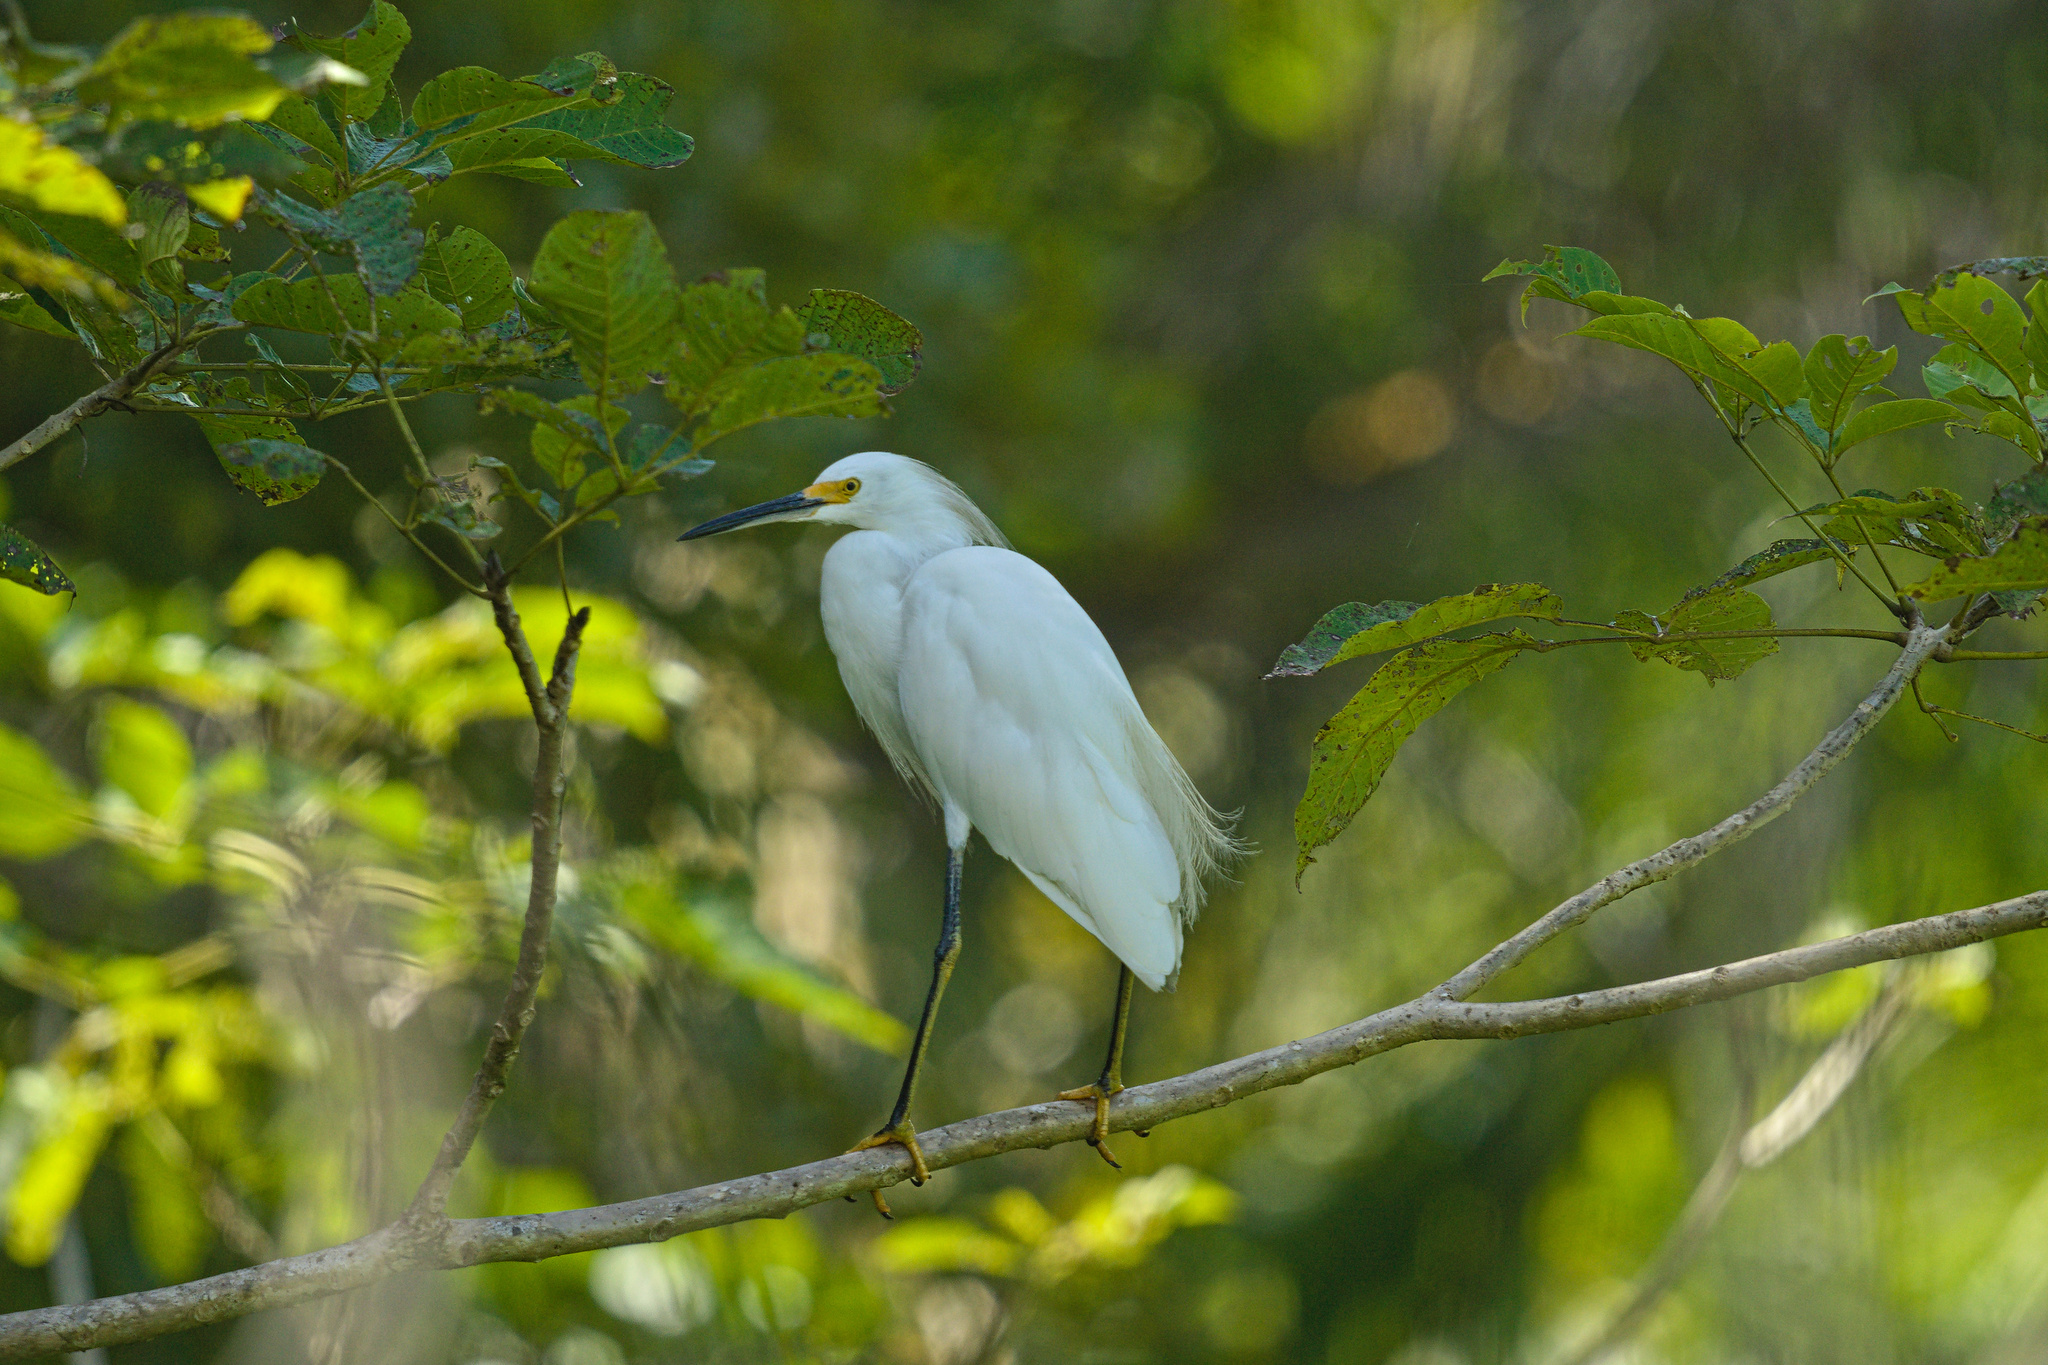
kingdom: Animalia
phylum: Chordata
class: Aves
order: Pelecaniformes
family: Ardeidae
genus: Egretta
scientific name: Egretta thula
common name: Snowy egret
